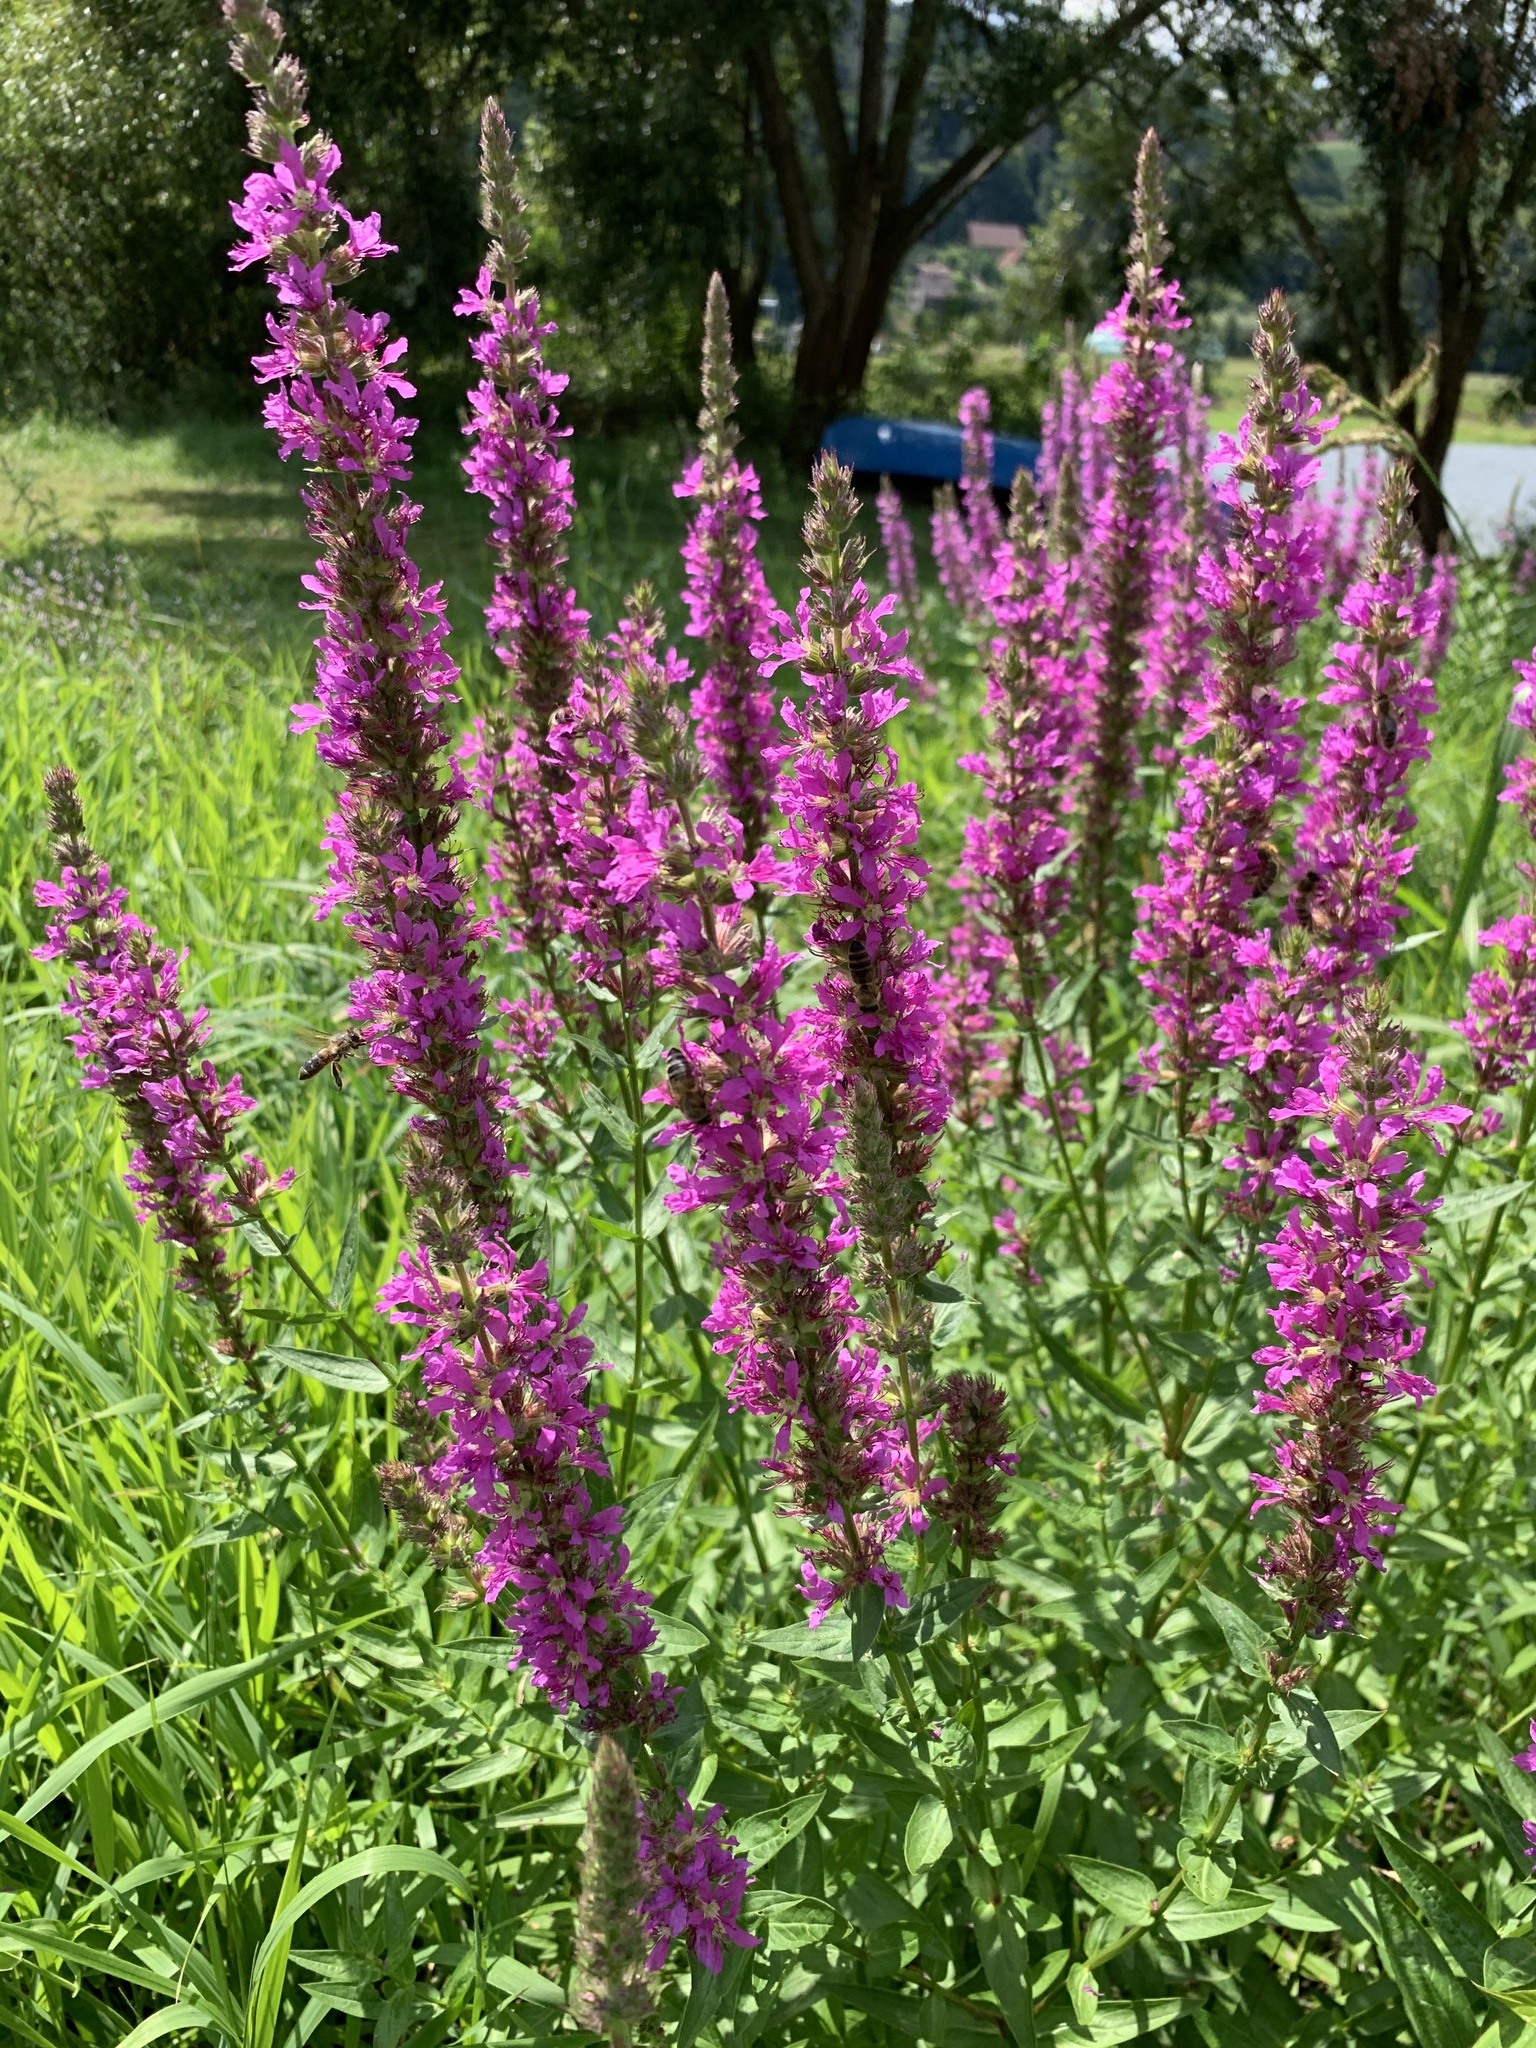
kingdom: Plantae
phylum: Tracheophyta
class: Magnoliopsida
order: Myrtales
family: Lythraceae
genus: Lythrum
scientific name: Lythrum salicaria
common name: Purple loosestrife
